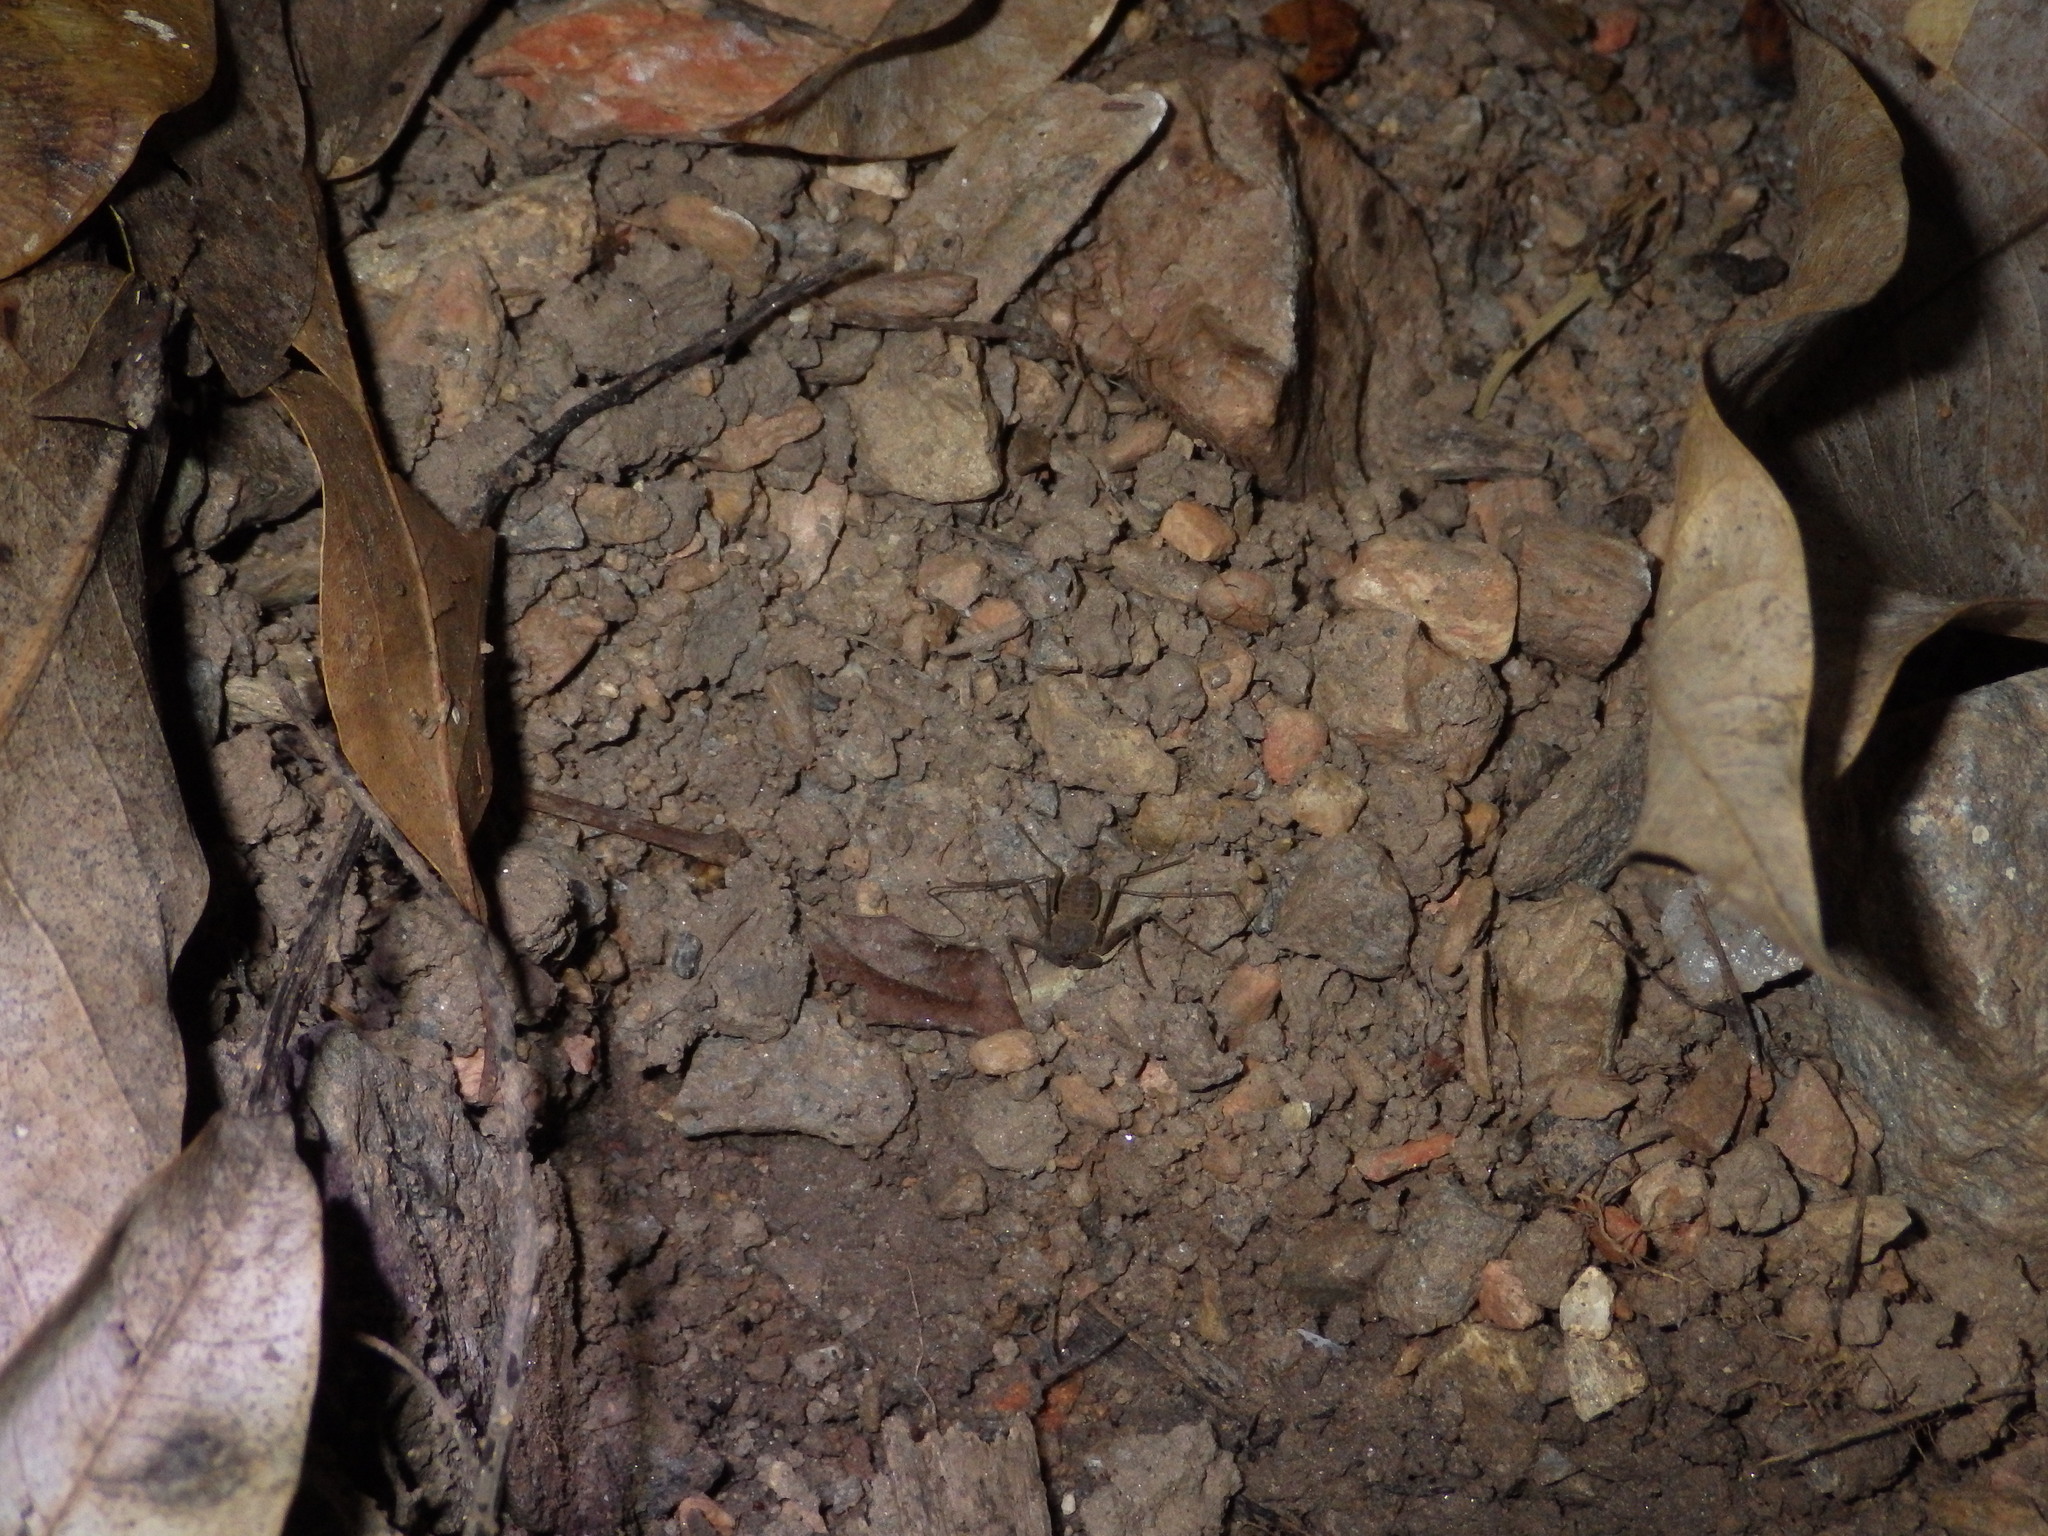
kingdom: Animalia
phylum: Arthropoda
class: Arachnida
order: Amblypygi
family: Charinidae
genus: Charinus
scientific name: Charinus pescotti
